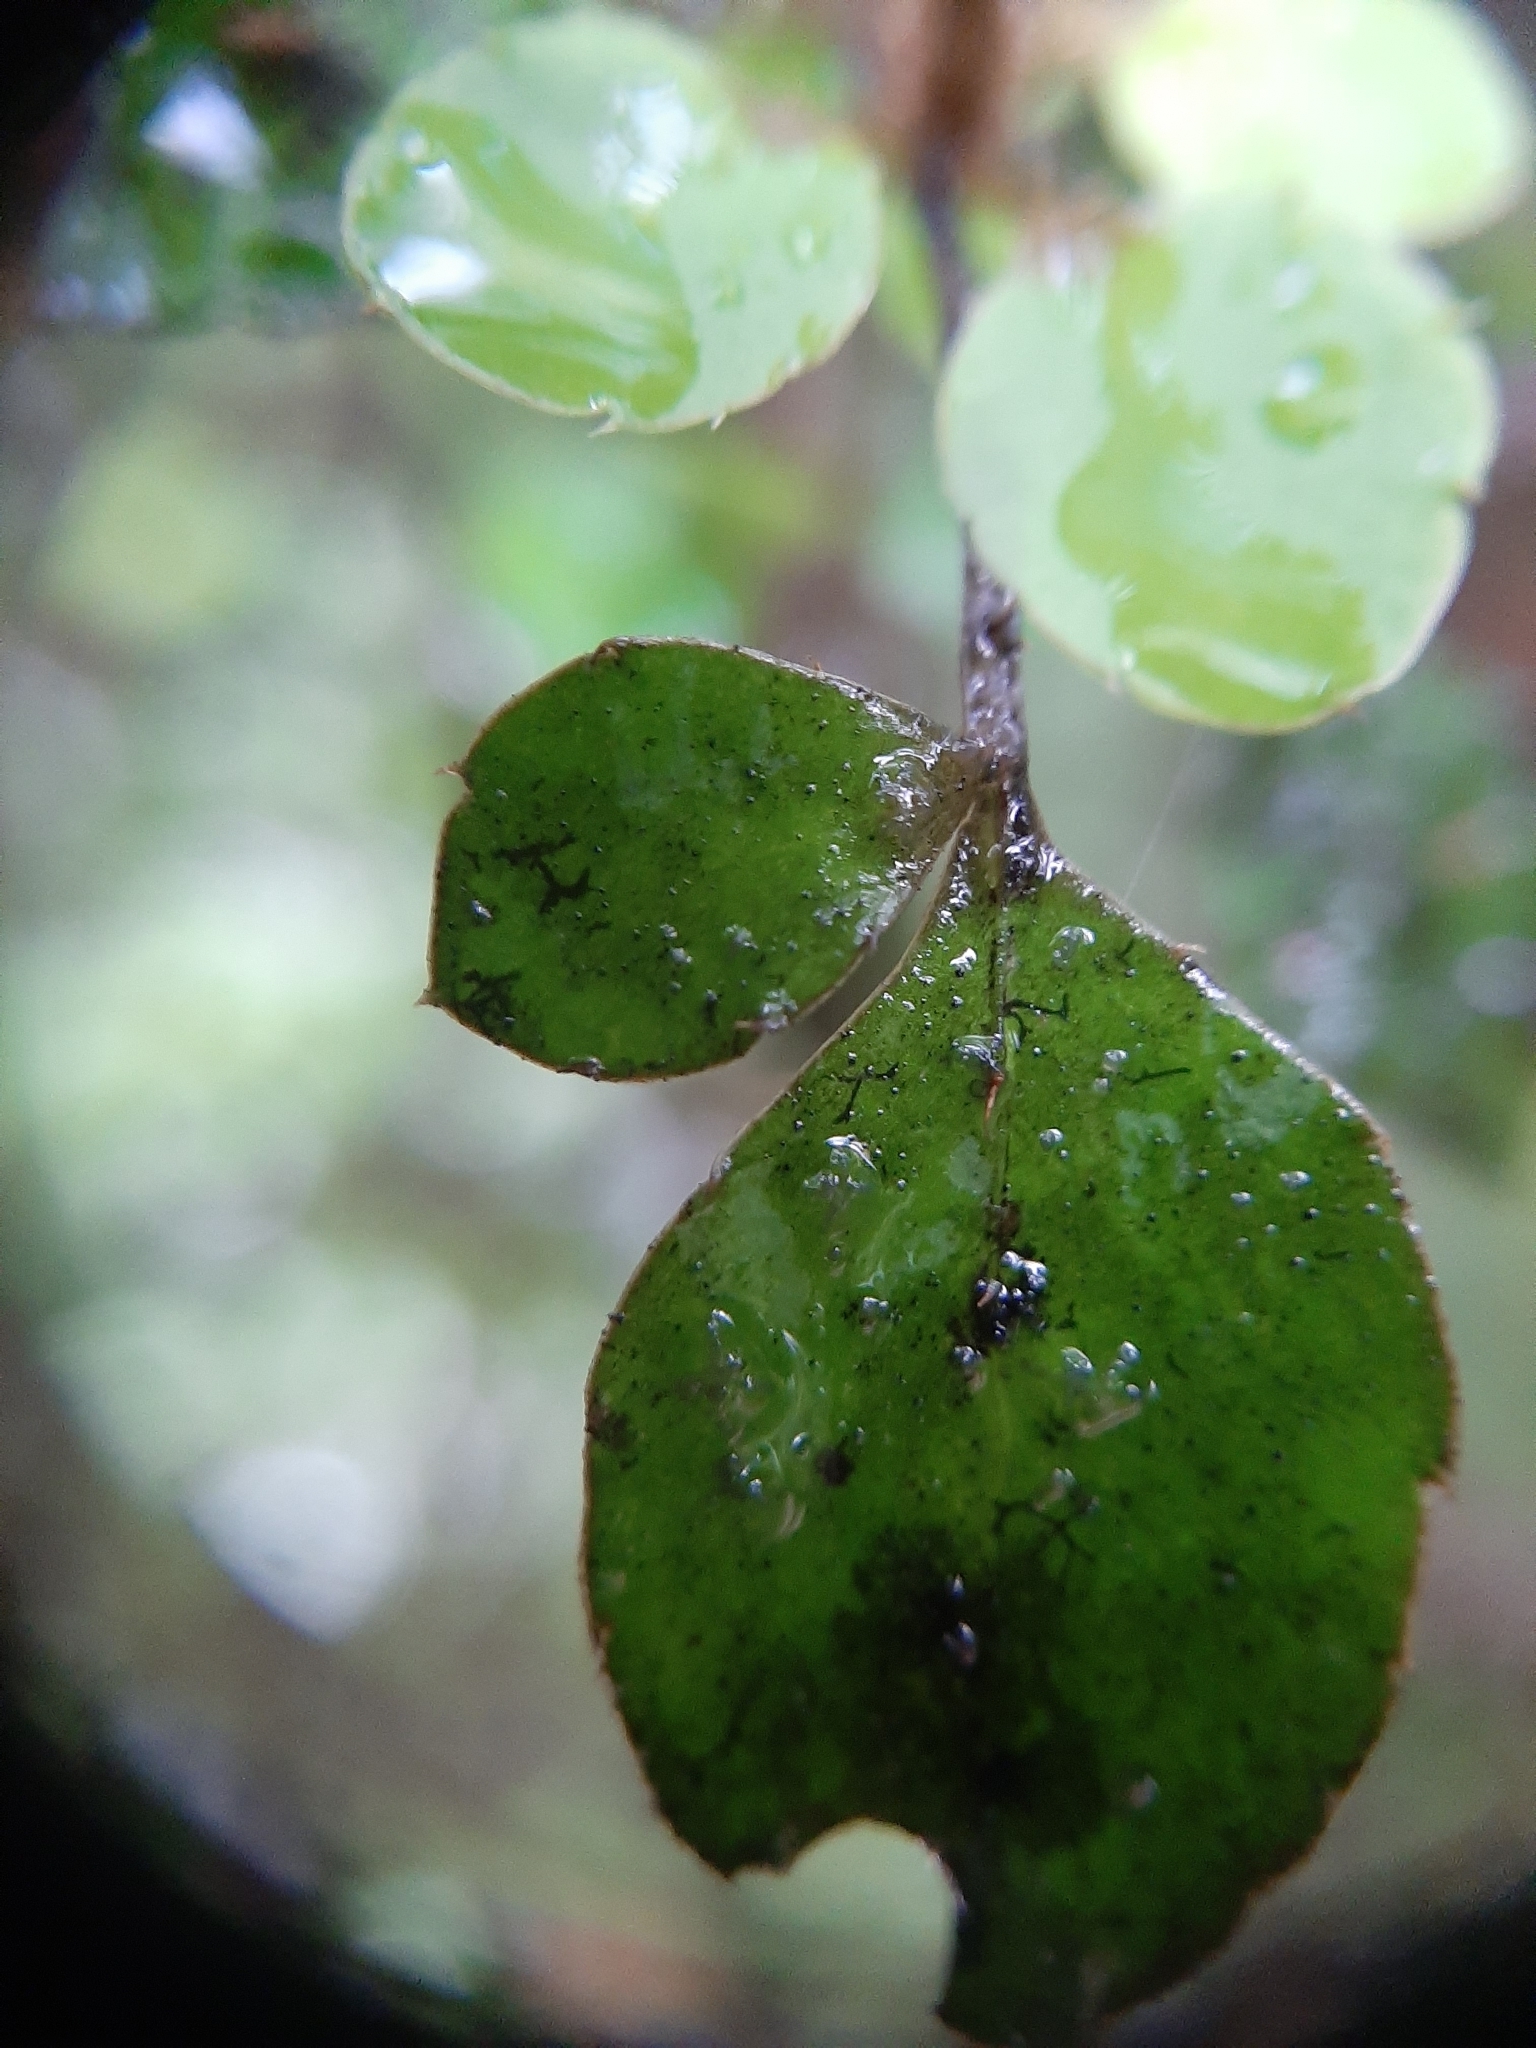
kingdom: Plantae
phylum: Tracheophyta
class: Magnoliopsida
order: Apiales
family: Araliaceae
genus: Raukaua
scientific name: Raukaua anomalus
